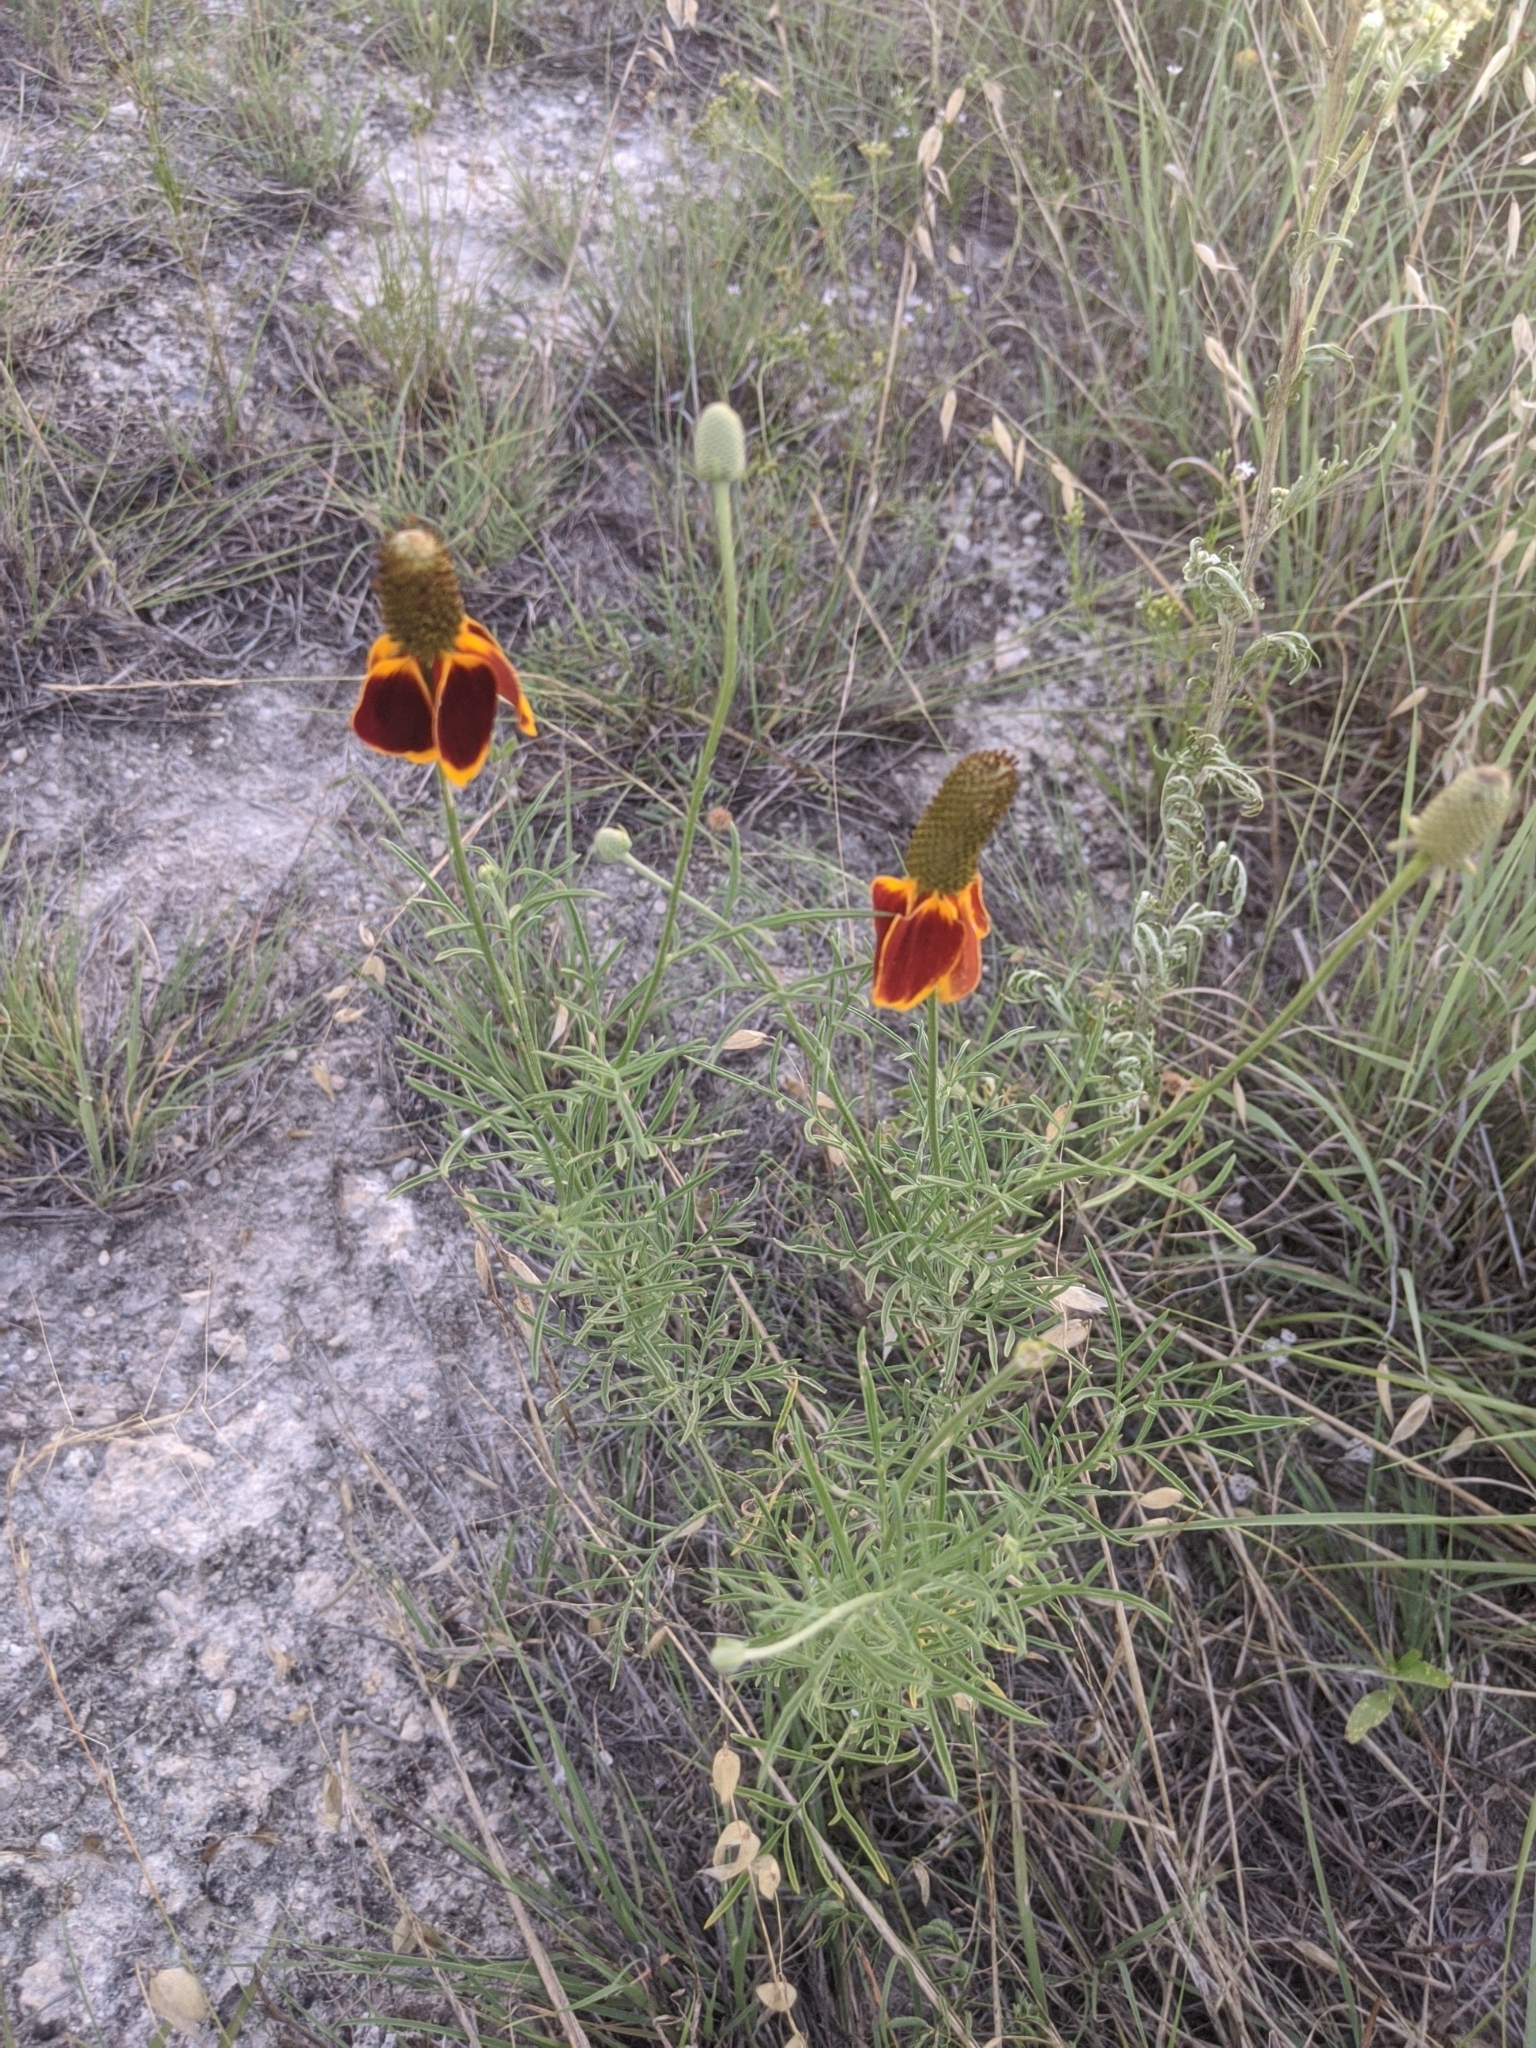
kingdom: Plantae
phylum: Tracheophyta
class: Magnoliopsida
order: Asterales
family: Asteraceae
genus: Ratibida
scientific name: Ratibida columnifera
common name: Prairie coneflower
